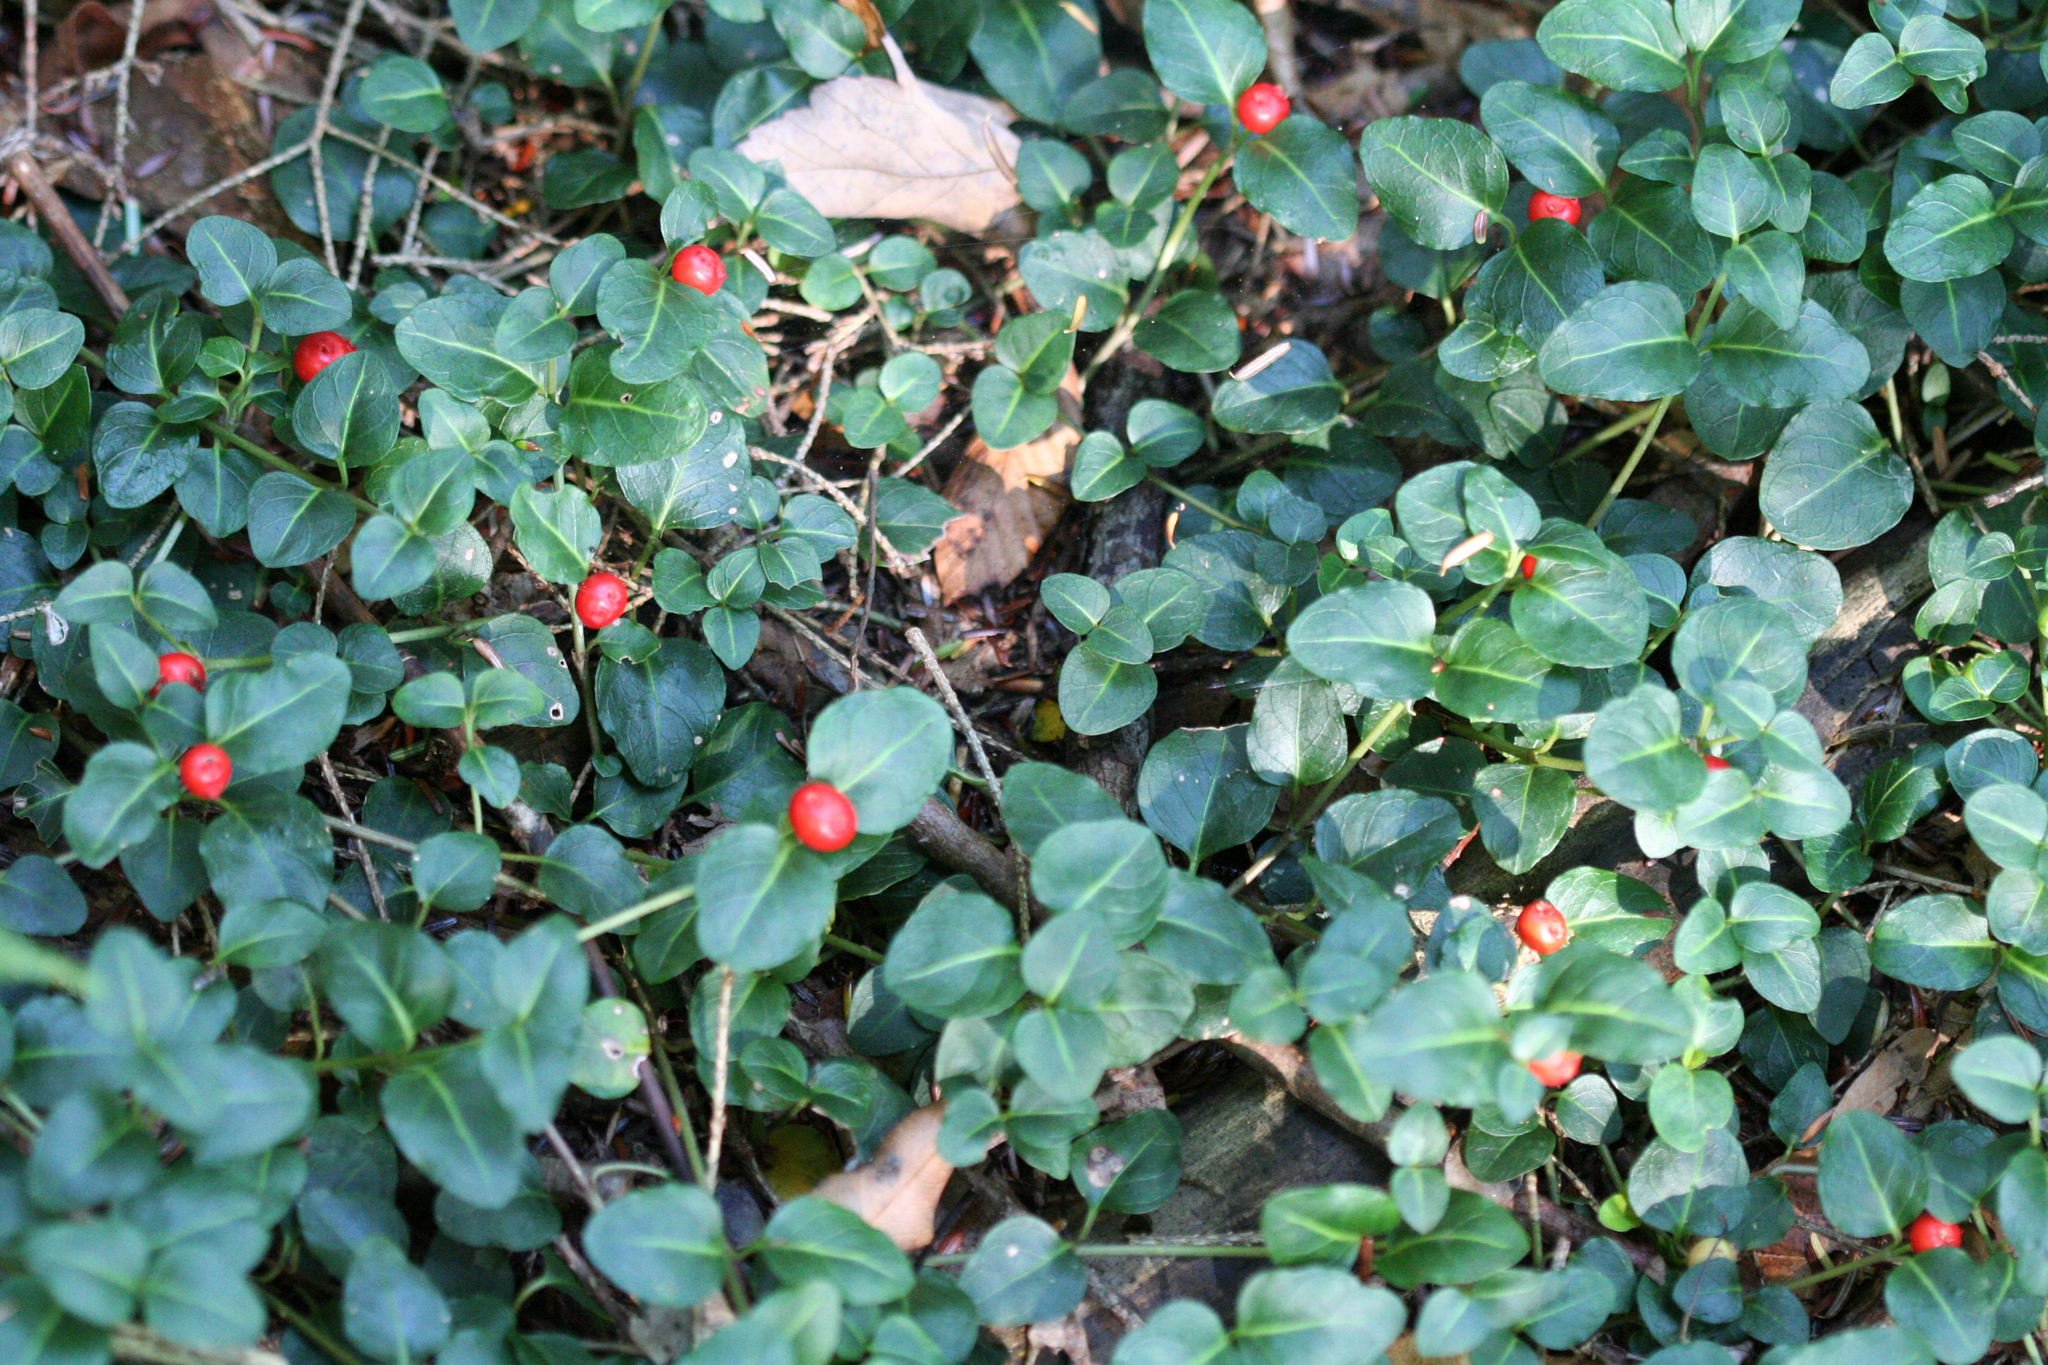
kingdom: Plantae
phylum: Tracheophyta
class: Magnoliopsida
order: Gentianales
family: Rubiaceae
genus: Mitchella
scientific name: Mitchella repens
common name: Partridge-berry
